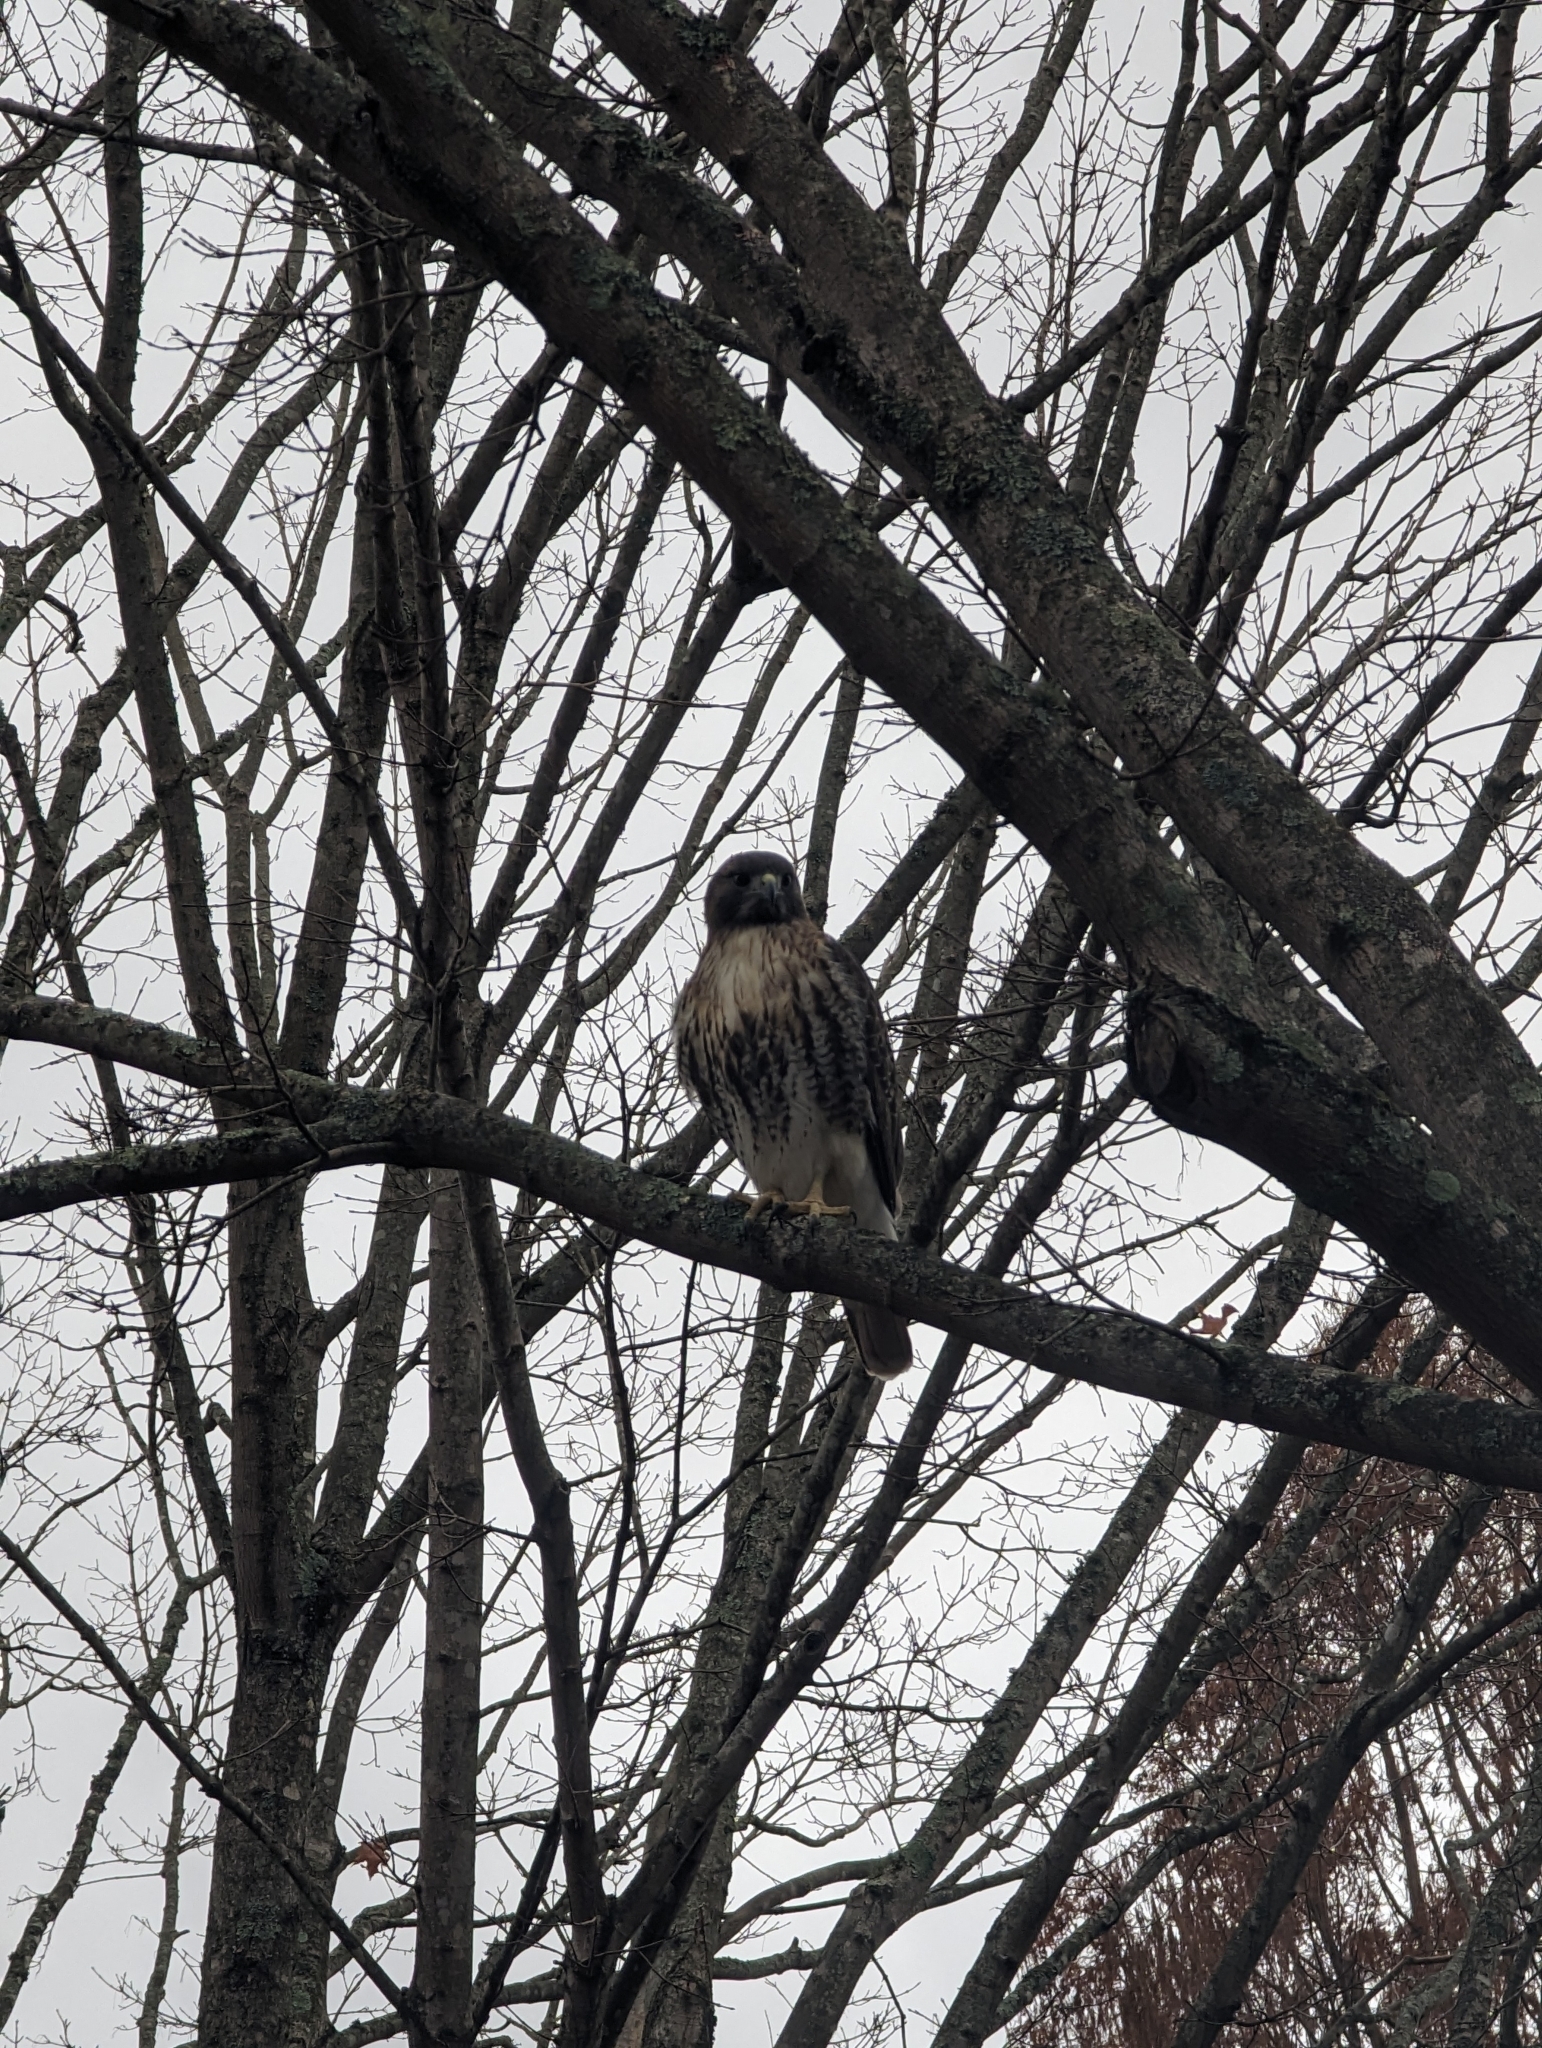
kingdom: Animalia
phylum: Chordata
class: Aves
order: Accipitriformes
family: Accipitridae
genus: Buteo
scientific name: Buteo jamaicensis
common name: Red-tailed hawk
